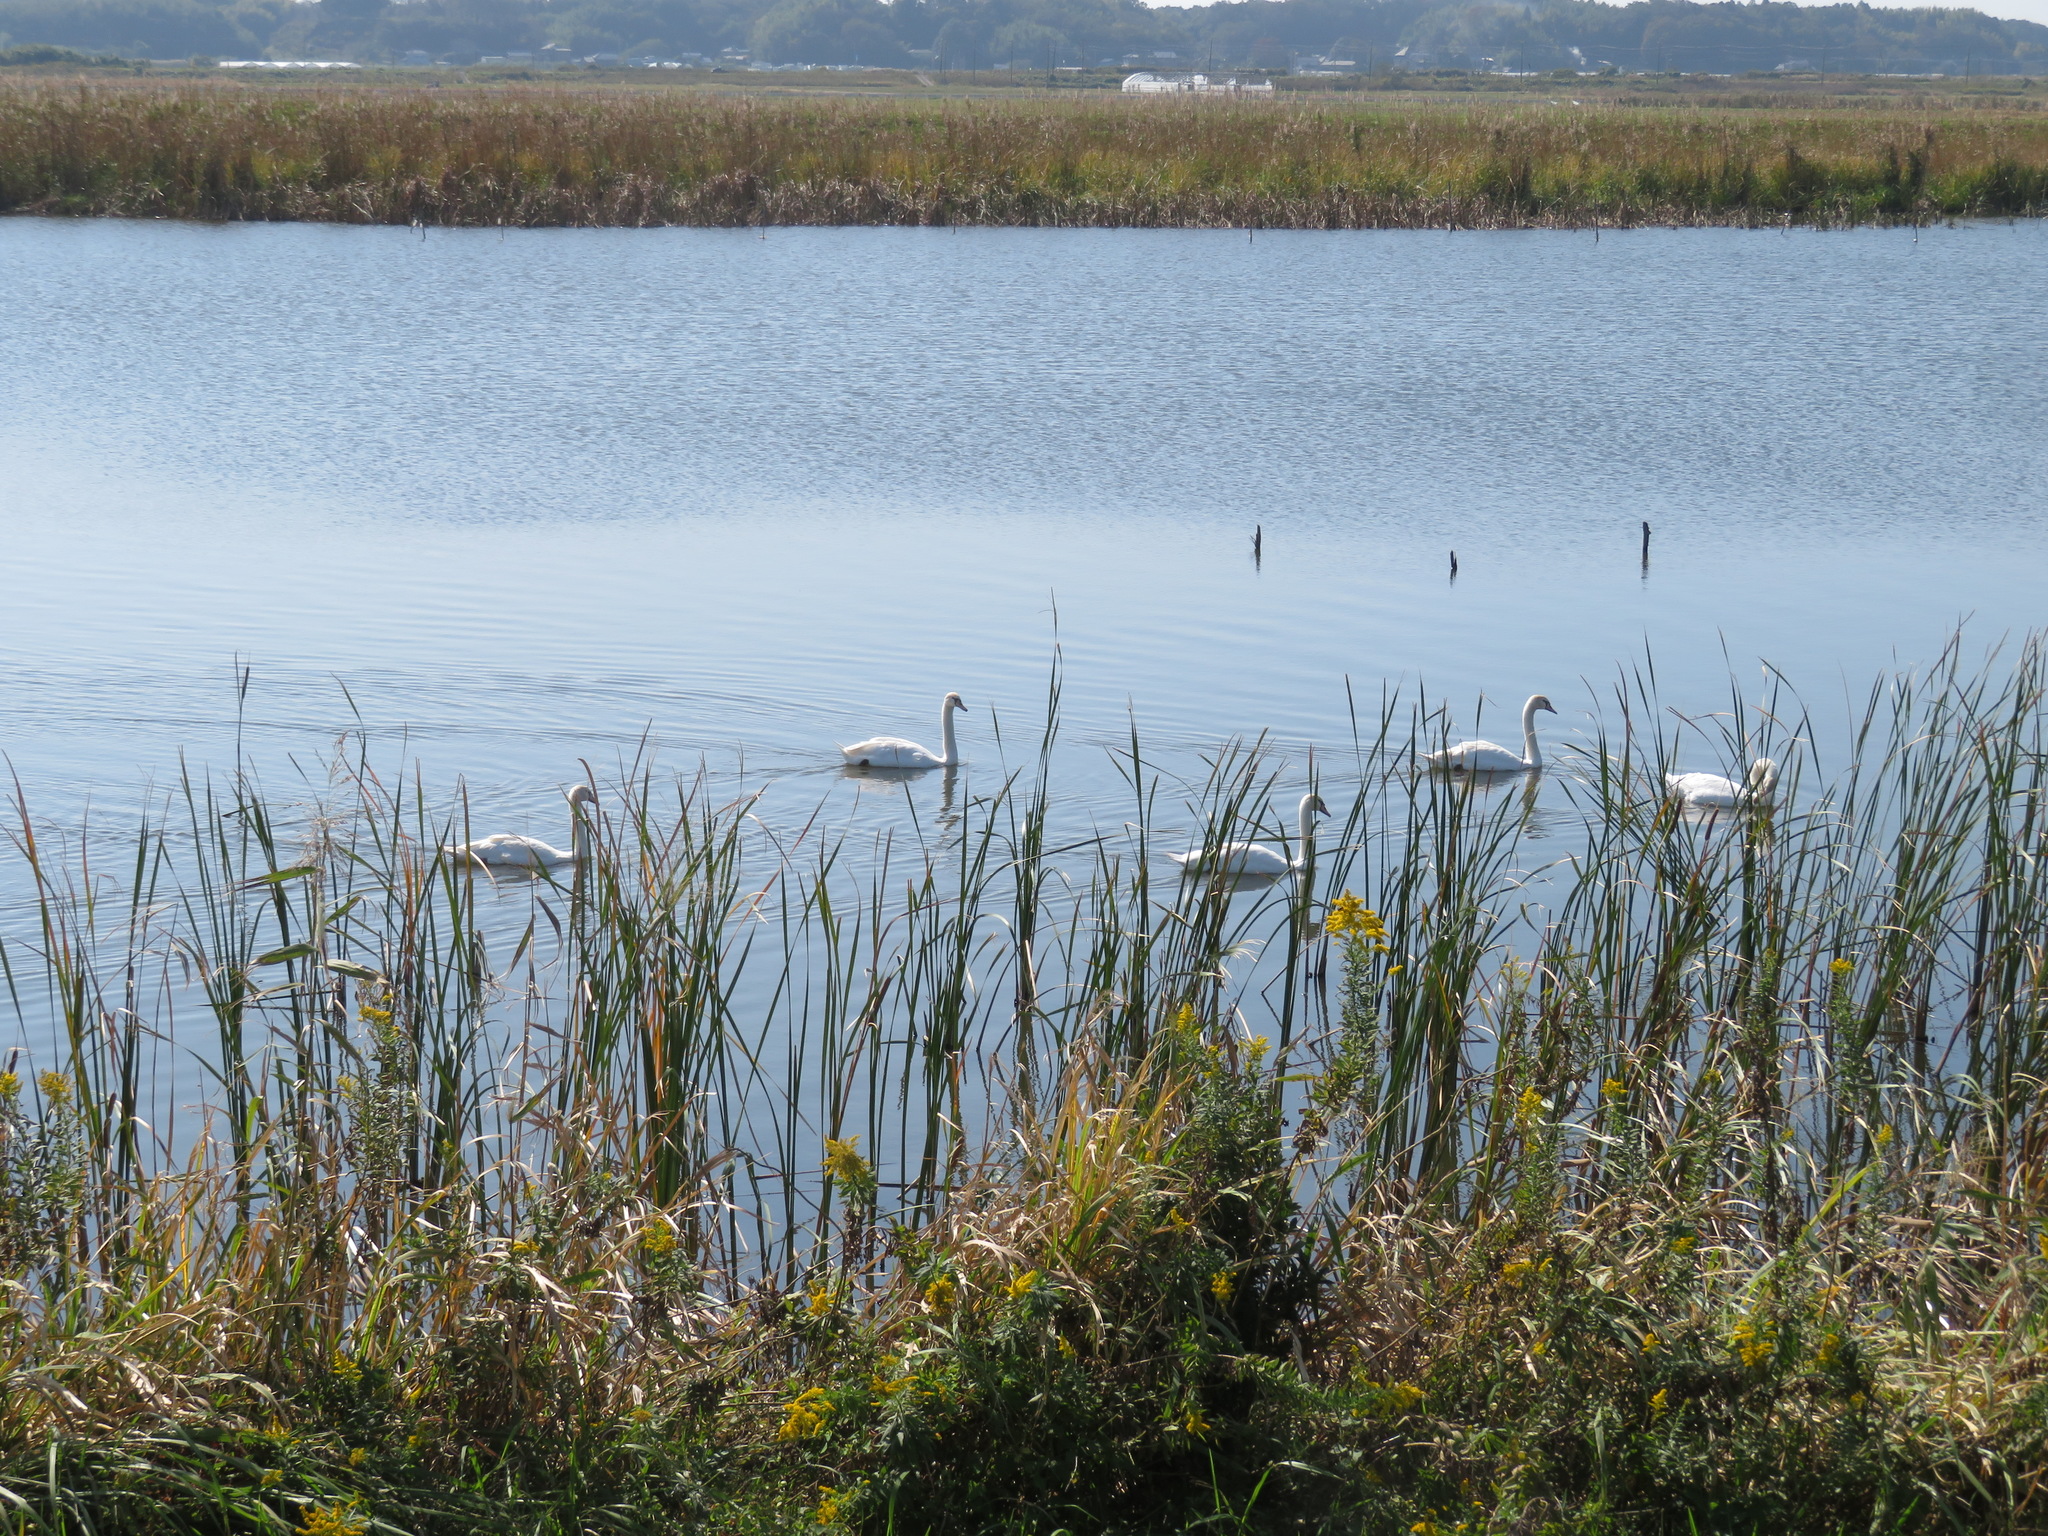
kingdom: Animalia
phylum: Chordata
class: Aves
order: Anseriformes
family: Anatidae
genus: Cygnus
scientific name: Cygnus olor
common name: Mute swan
